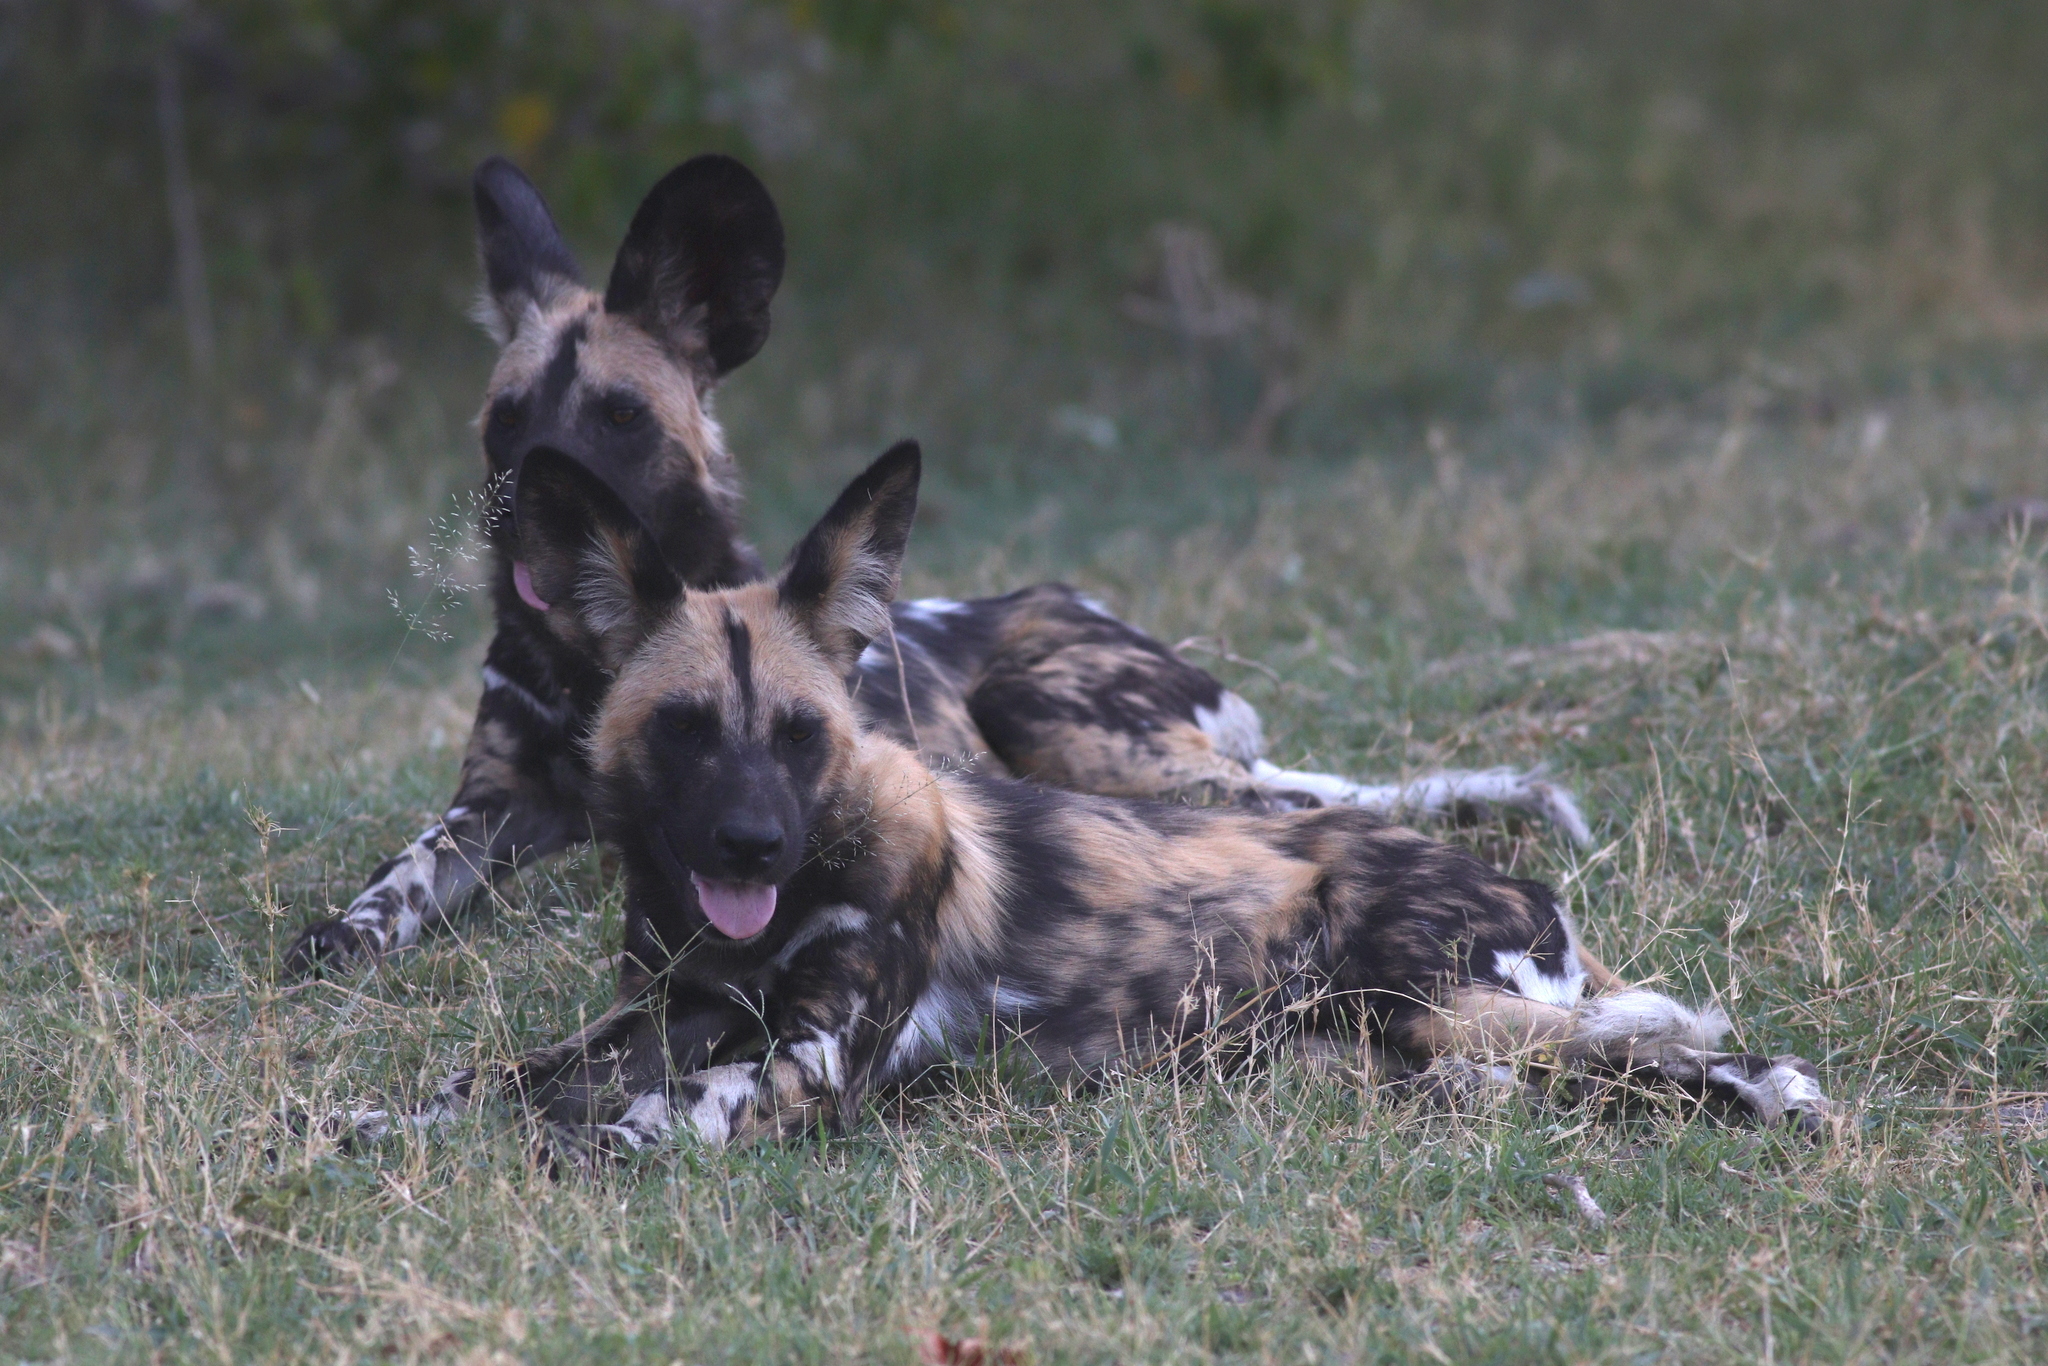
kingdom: Animalia
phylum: Chordata
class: Mammalia
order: Carnivora
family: Canidae
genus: Lycaon
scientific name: Lycaon pictus
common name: African wild dog
